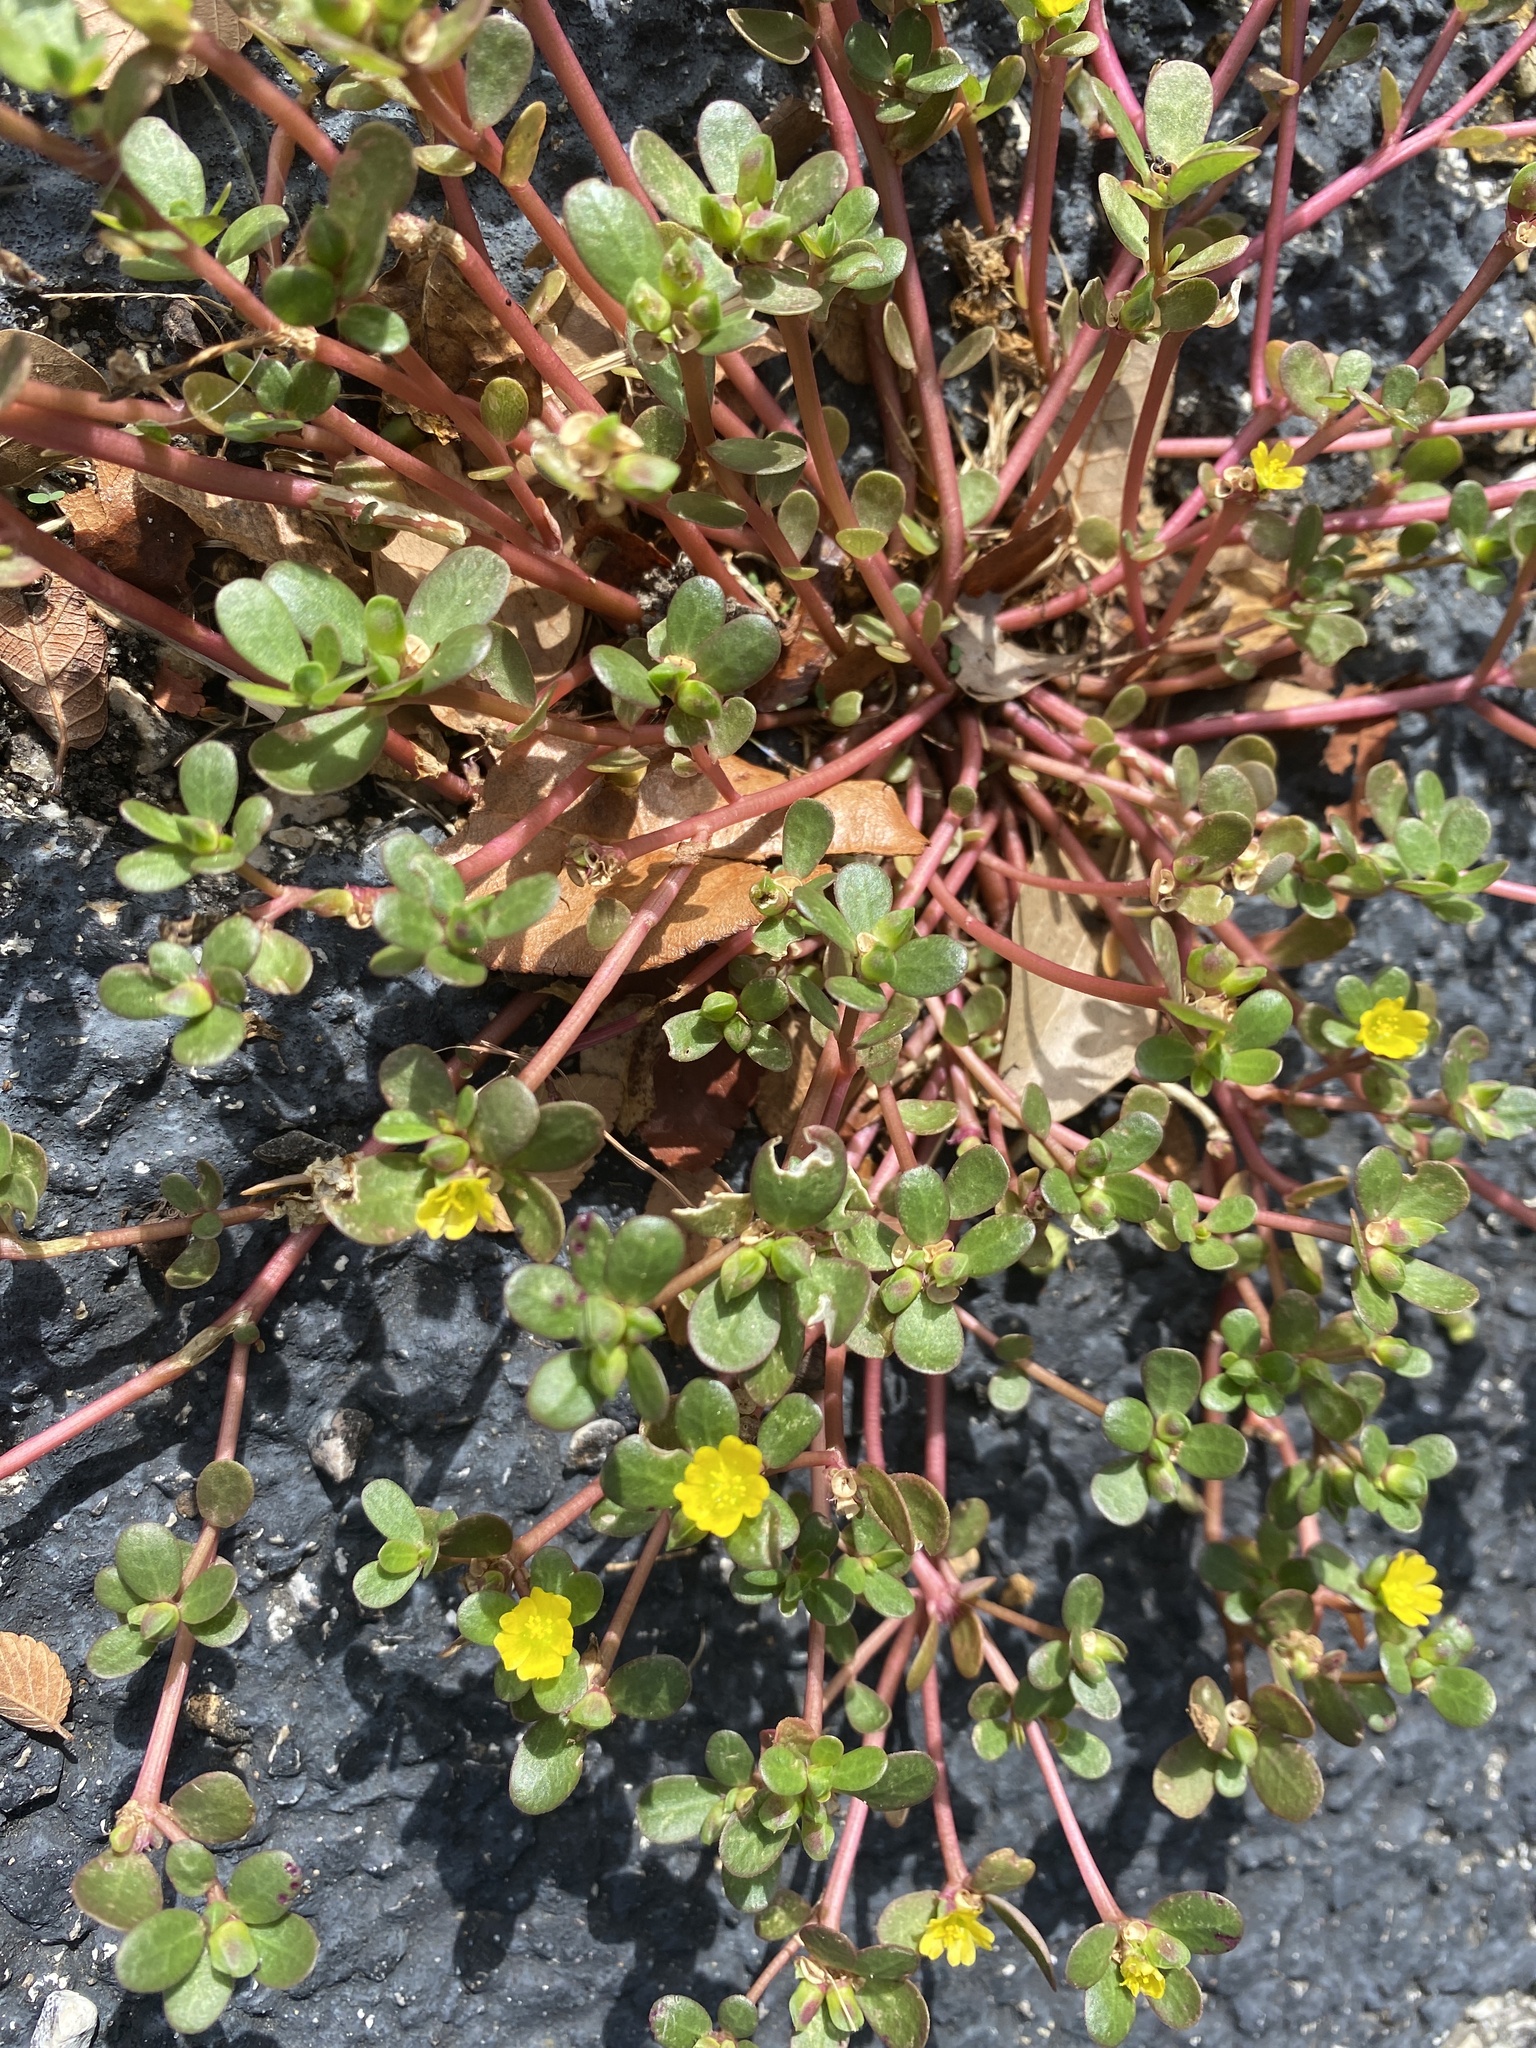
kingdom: Plantae
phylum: Tracheophyta
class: Magnoliopsida
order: Caryophyllales
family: Portulacaceae
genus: Portulaca
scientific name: Portulaca oleracea
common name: Common purslane
